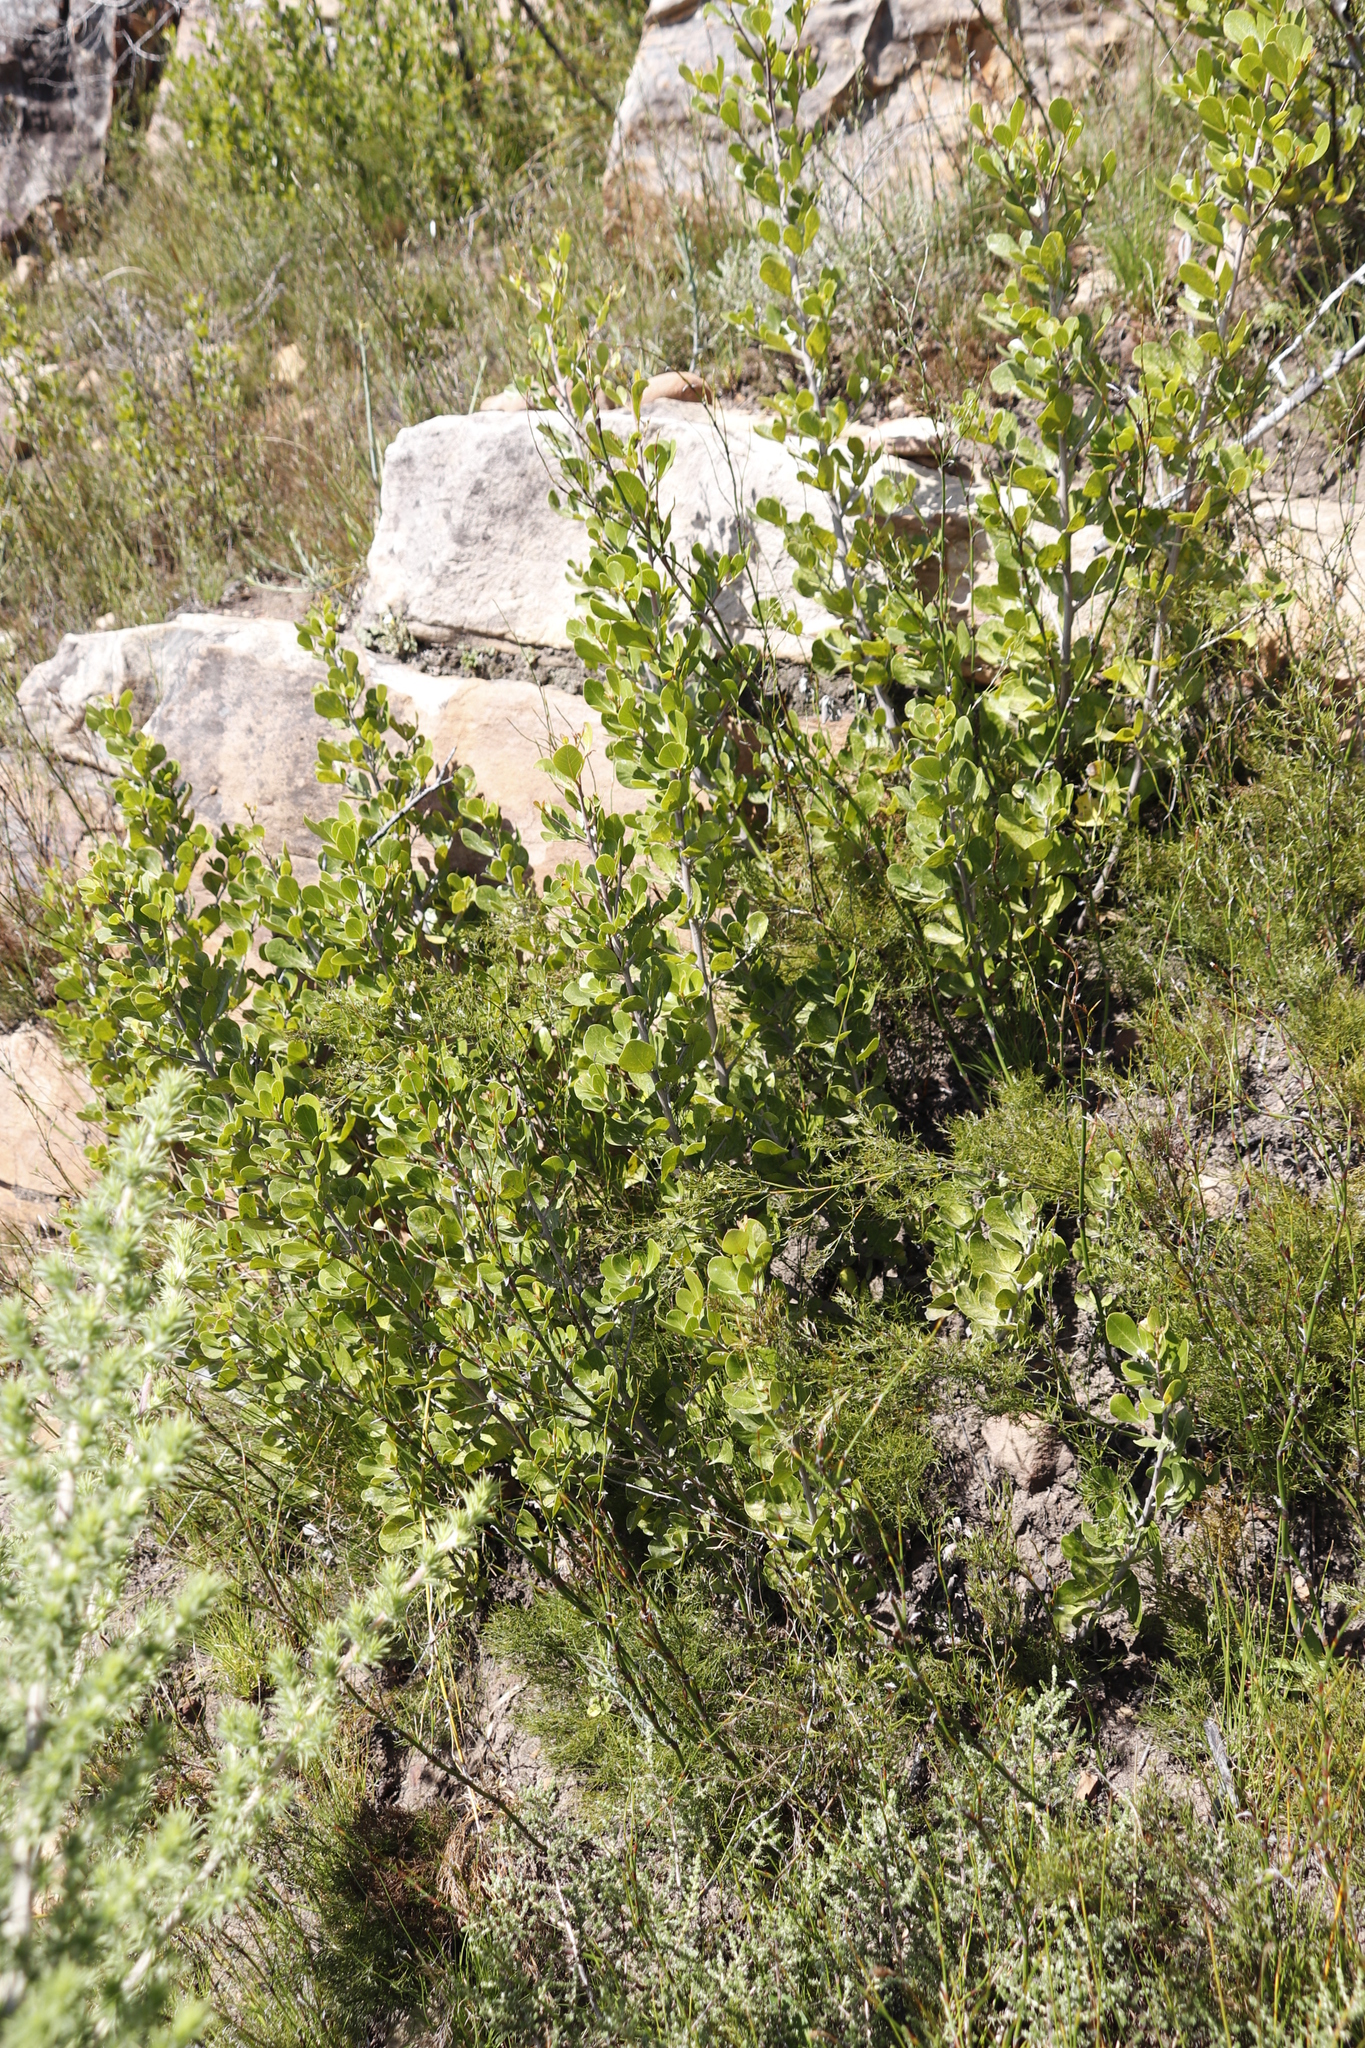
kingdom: Plantae
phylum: Tracheophyta
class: Magnoliopsida
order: Sapindales
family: Anacardiaceae
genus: Searsia
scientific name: Searsia lucida
